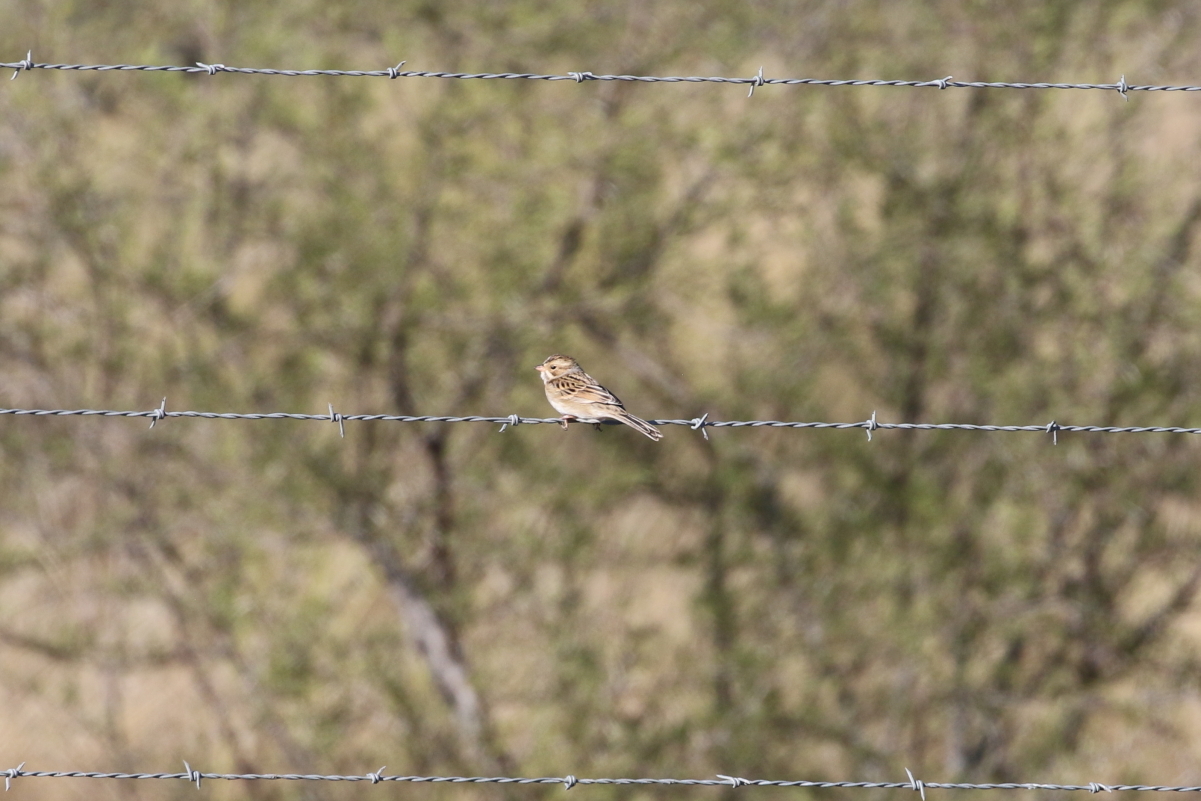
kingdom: Animalia
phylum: Chordata
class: Aves
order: Passeriformes
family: Passerellidae
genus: Spizella
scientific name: Spizella pallida
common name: Clay-colored sparrow
